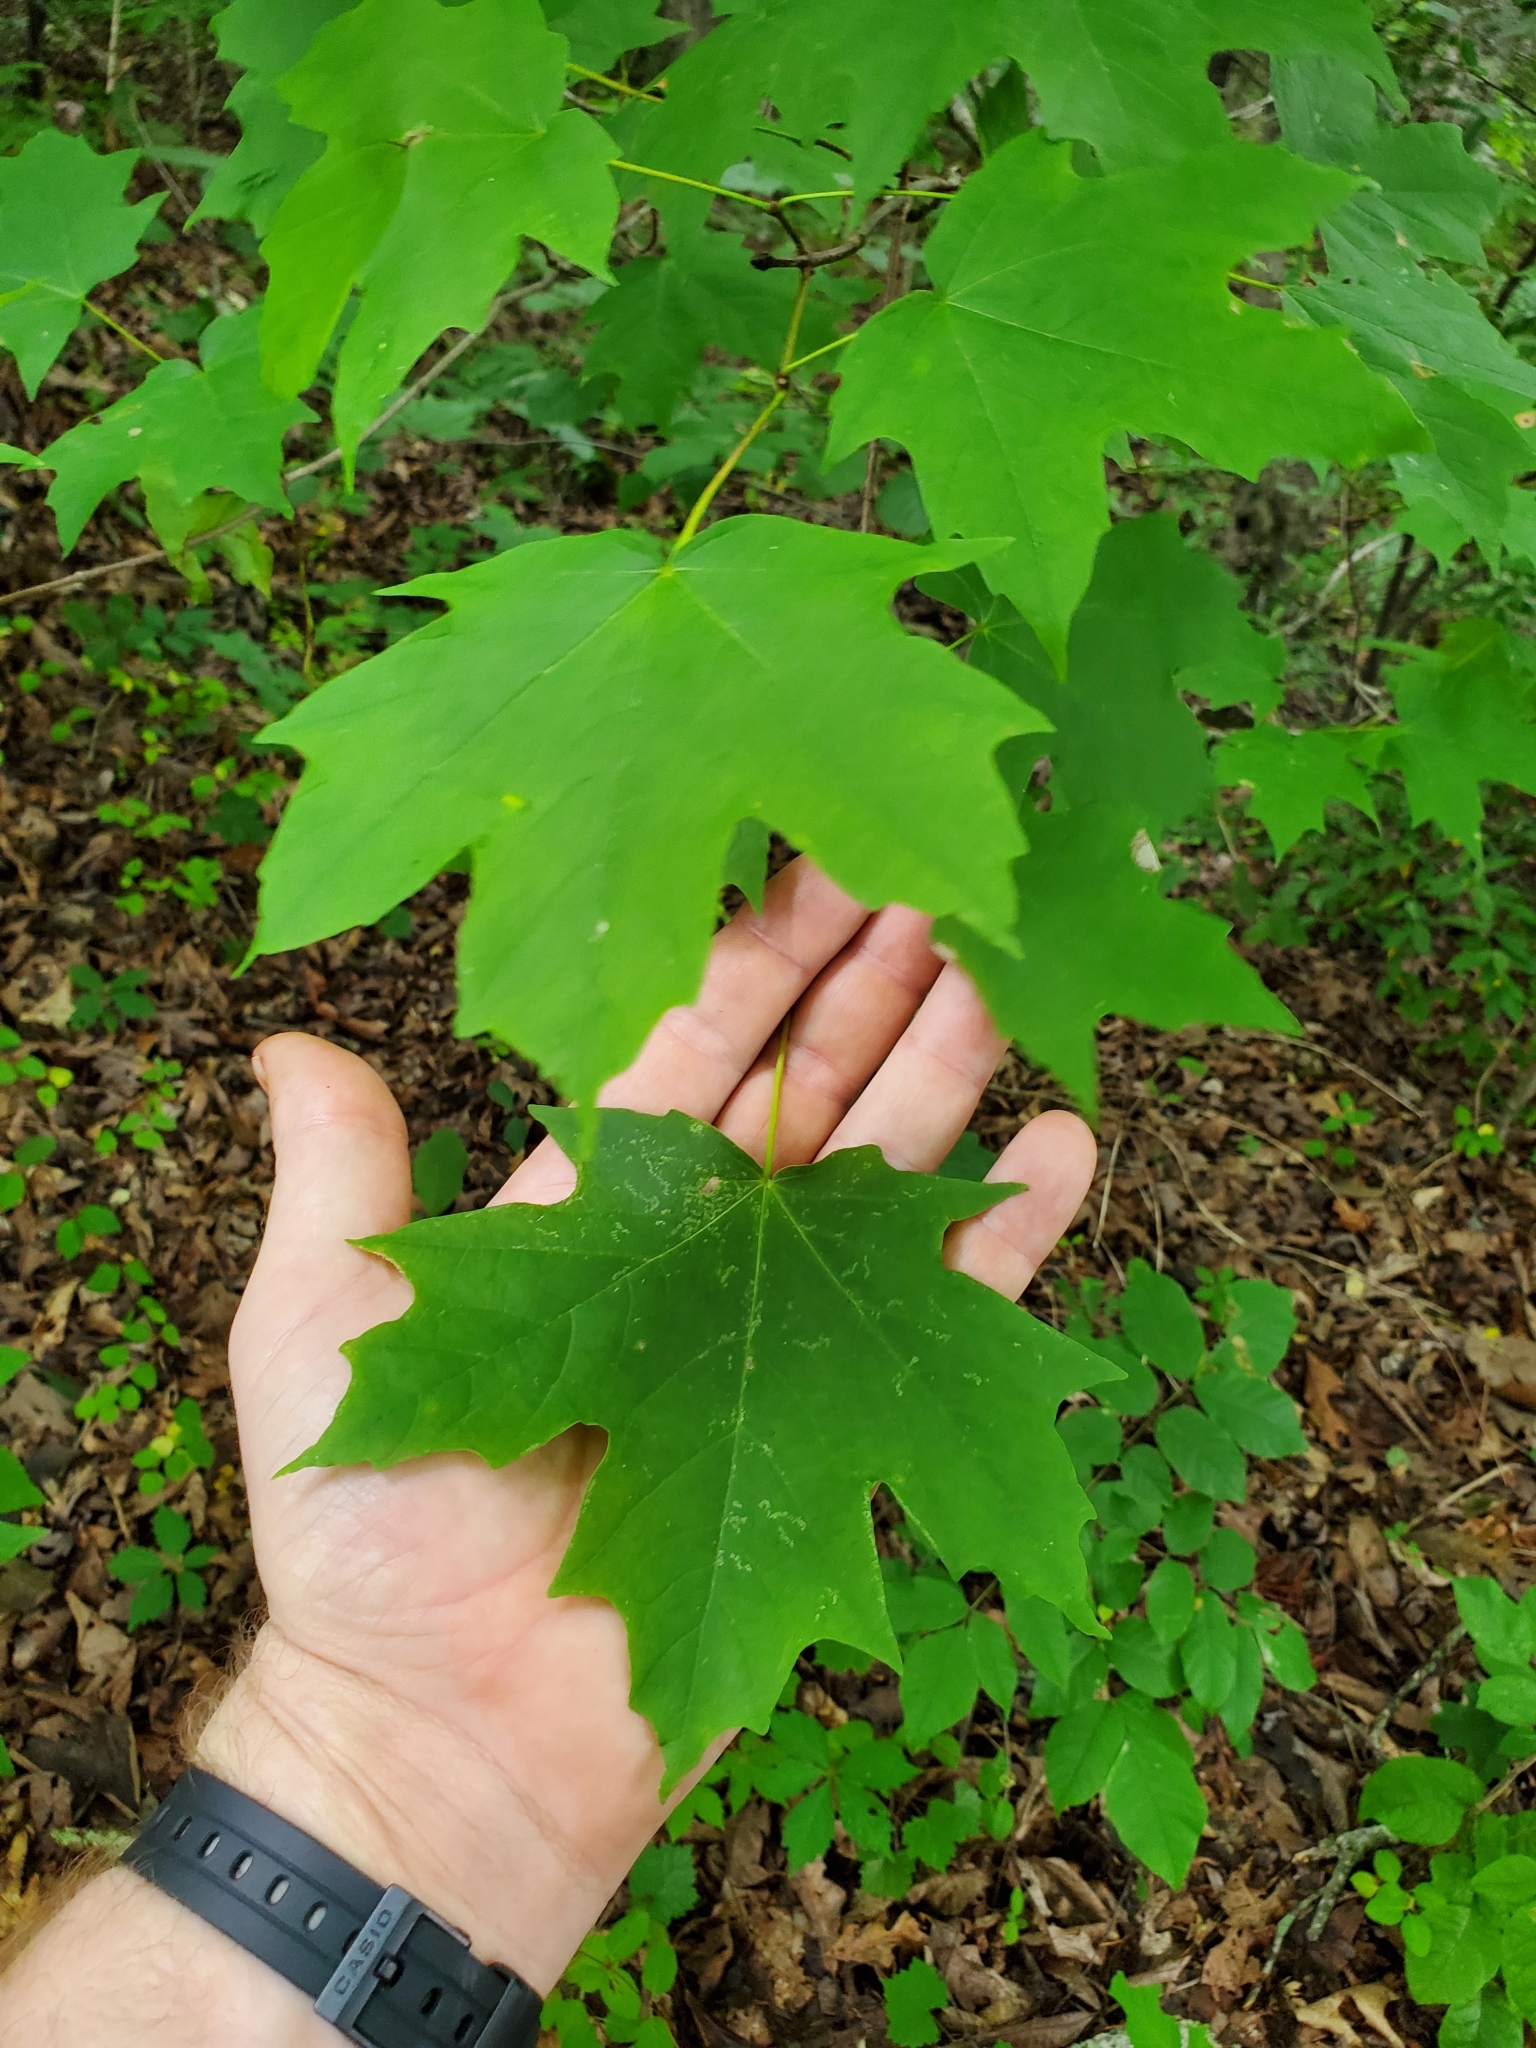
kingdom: Plantae
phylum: Tracheophyta
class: Magnoliopsida
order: Sapindales
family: Sapindaceae
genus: Acer
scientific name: Acer saccharum
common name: Sugar maple
